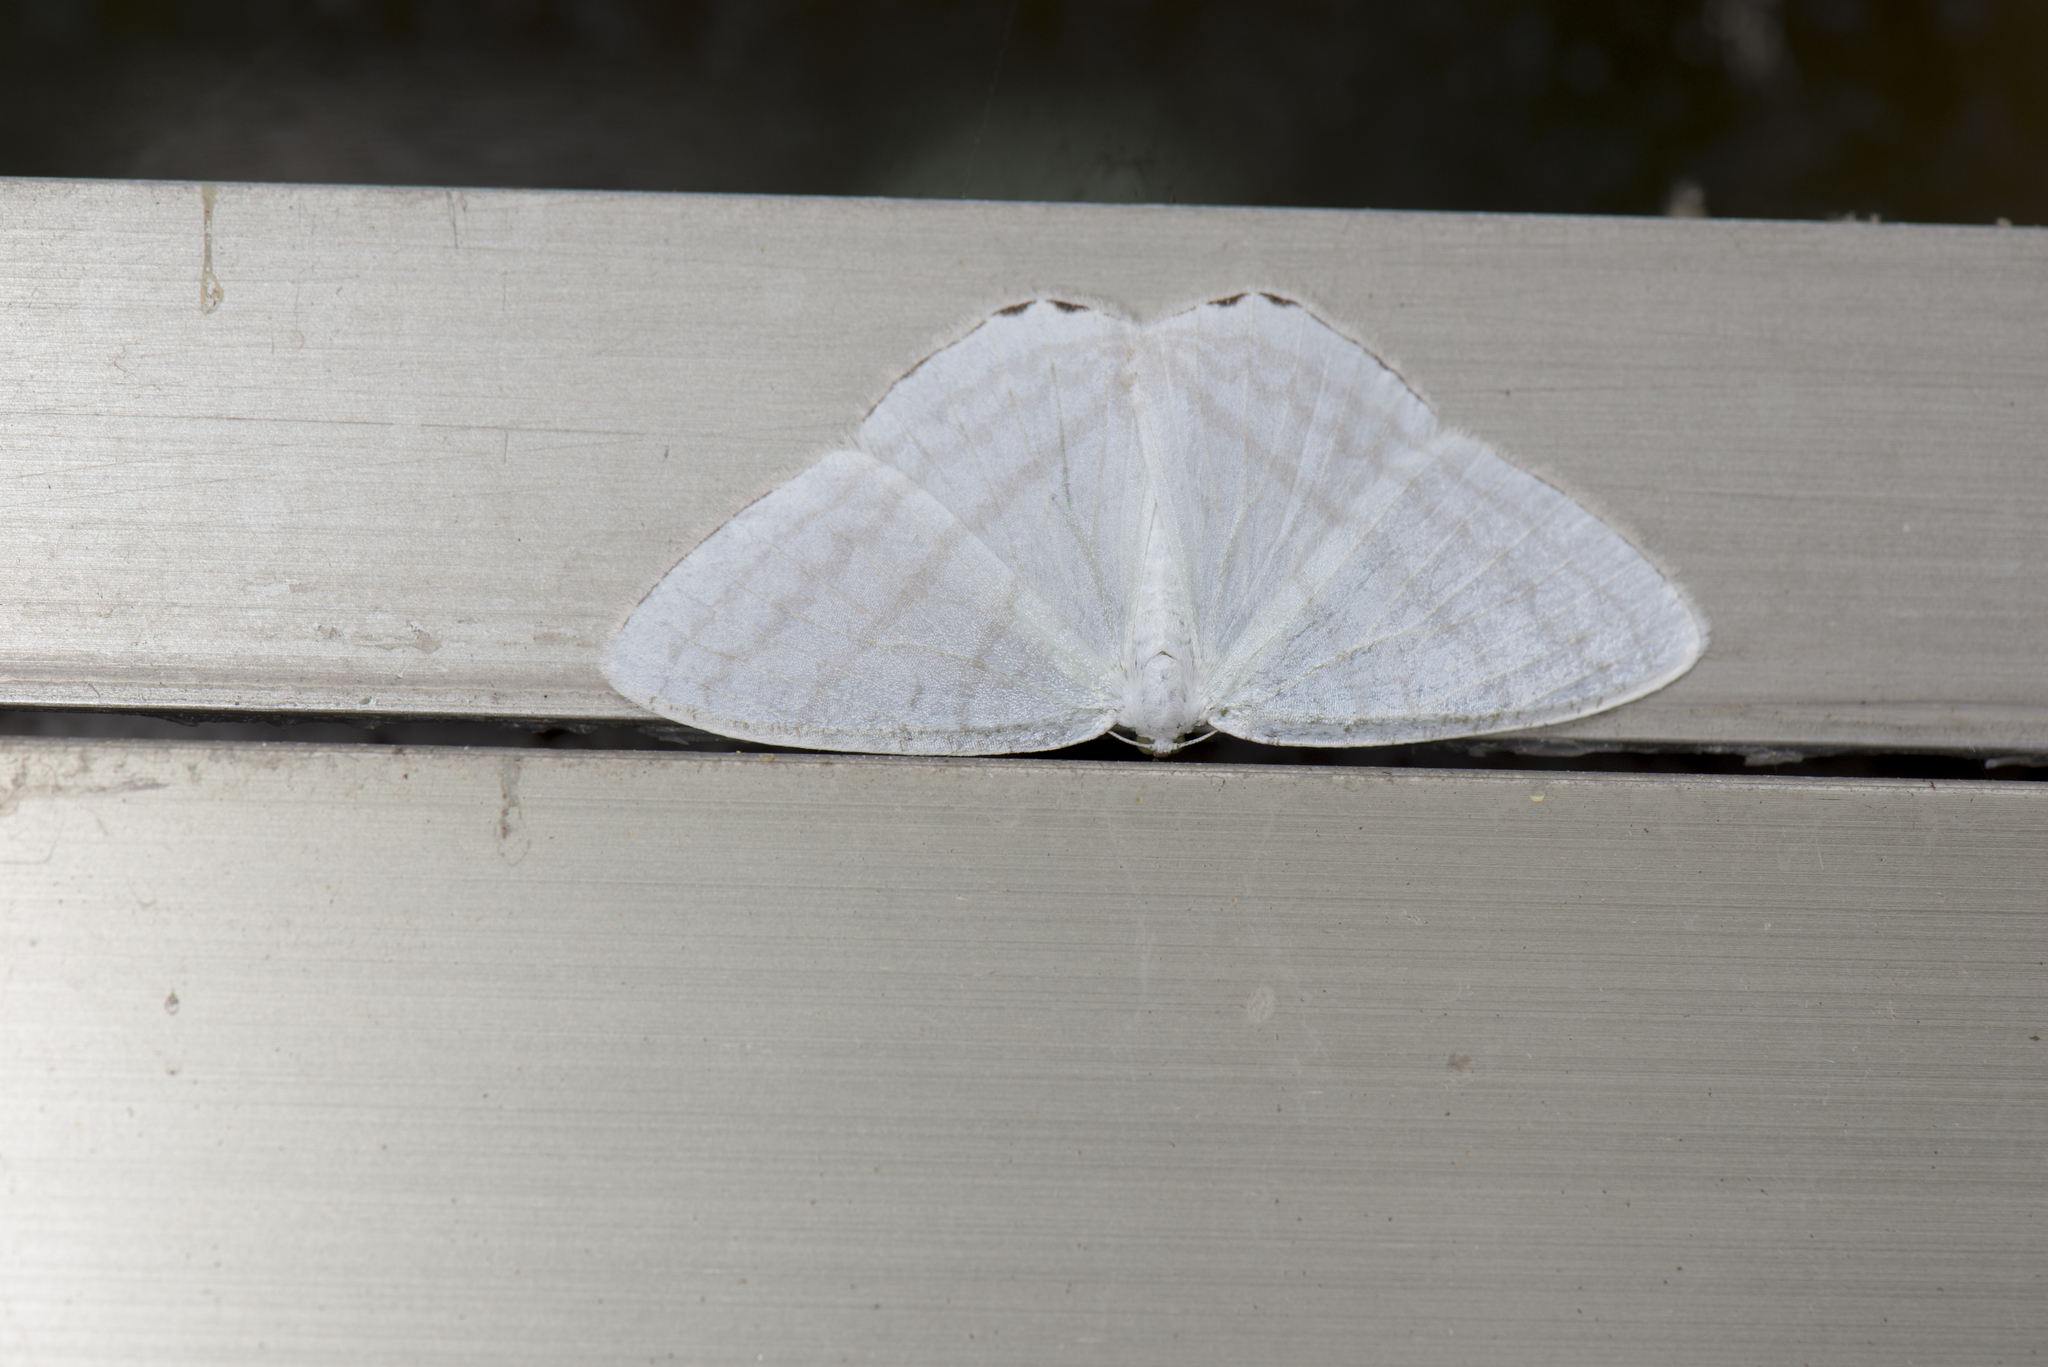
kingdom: Animalia
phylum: Arthropoda
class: Insecta
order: Lepidoptera
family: Geometridae
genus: Micronidia
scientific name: Micronidia intermedia
